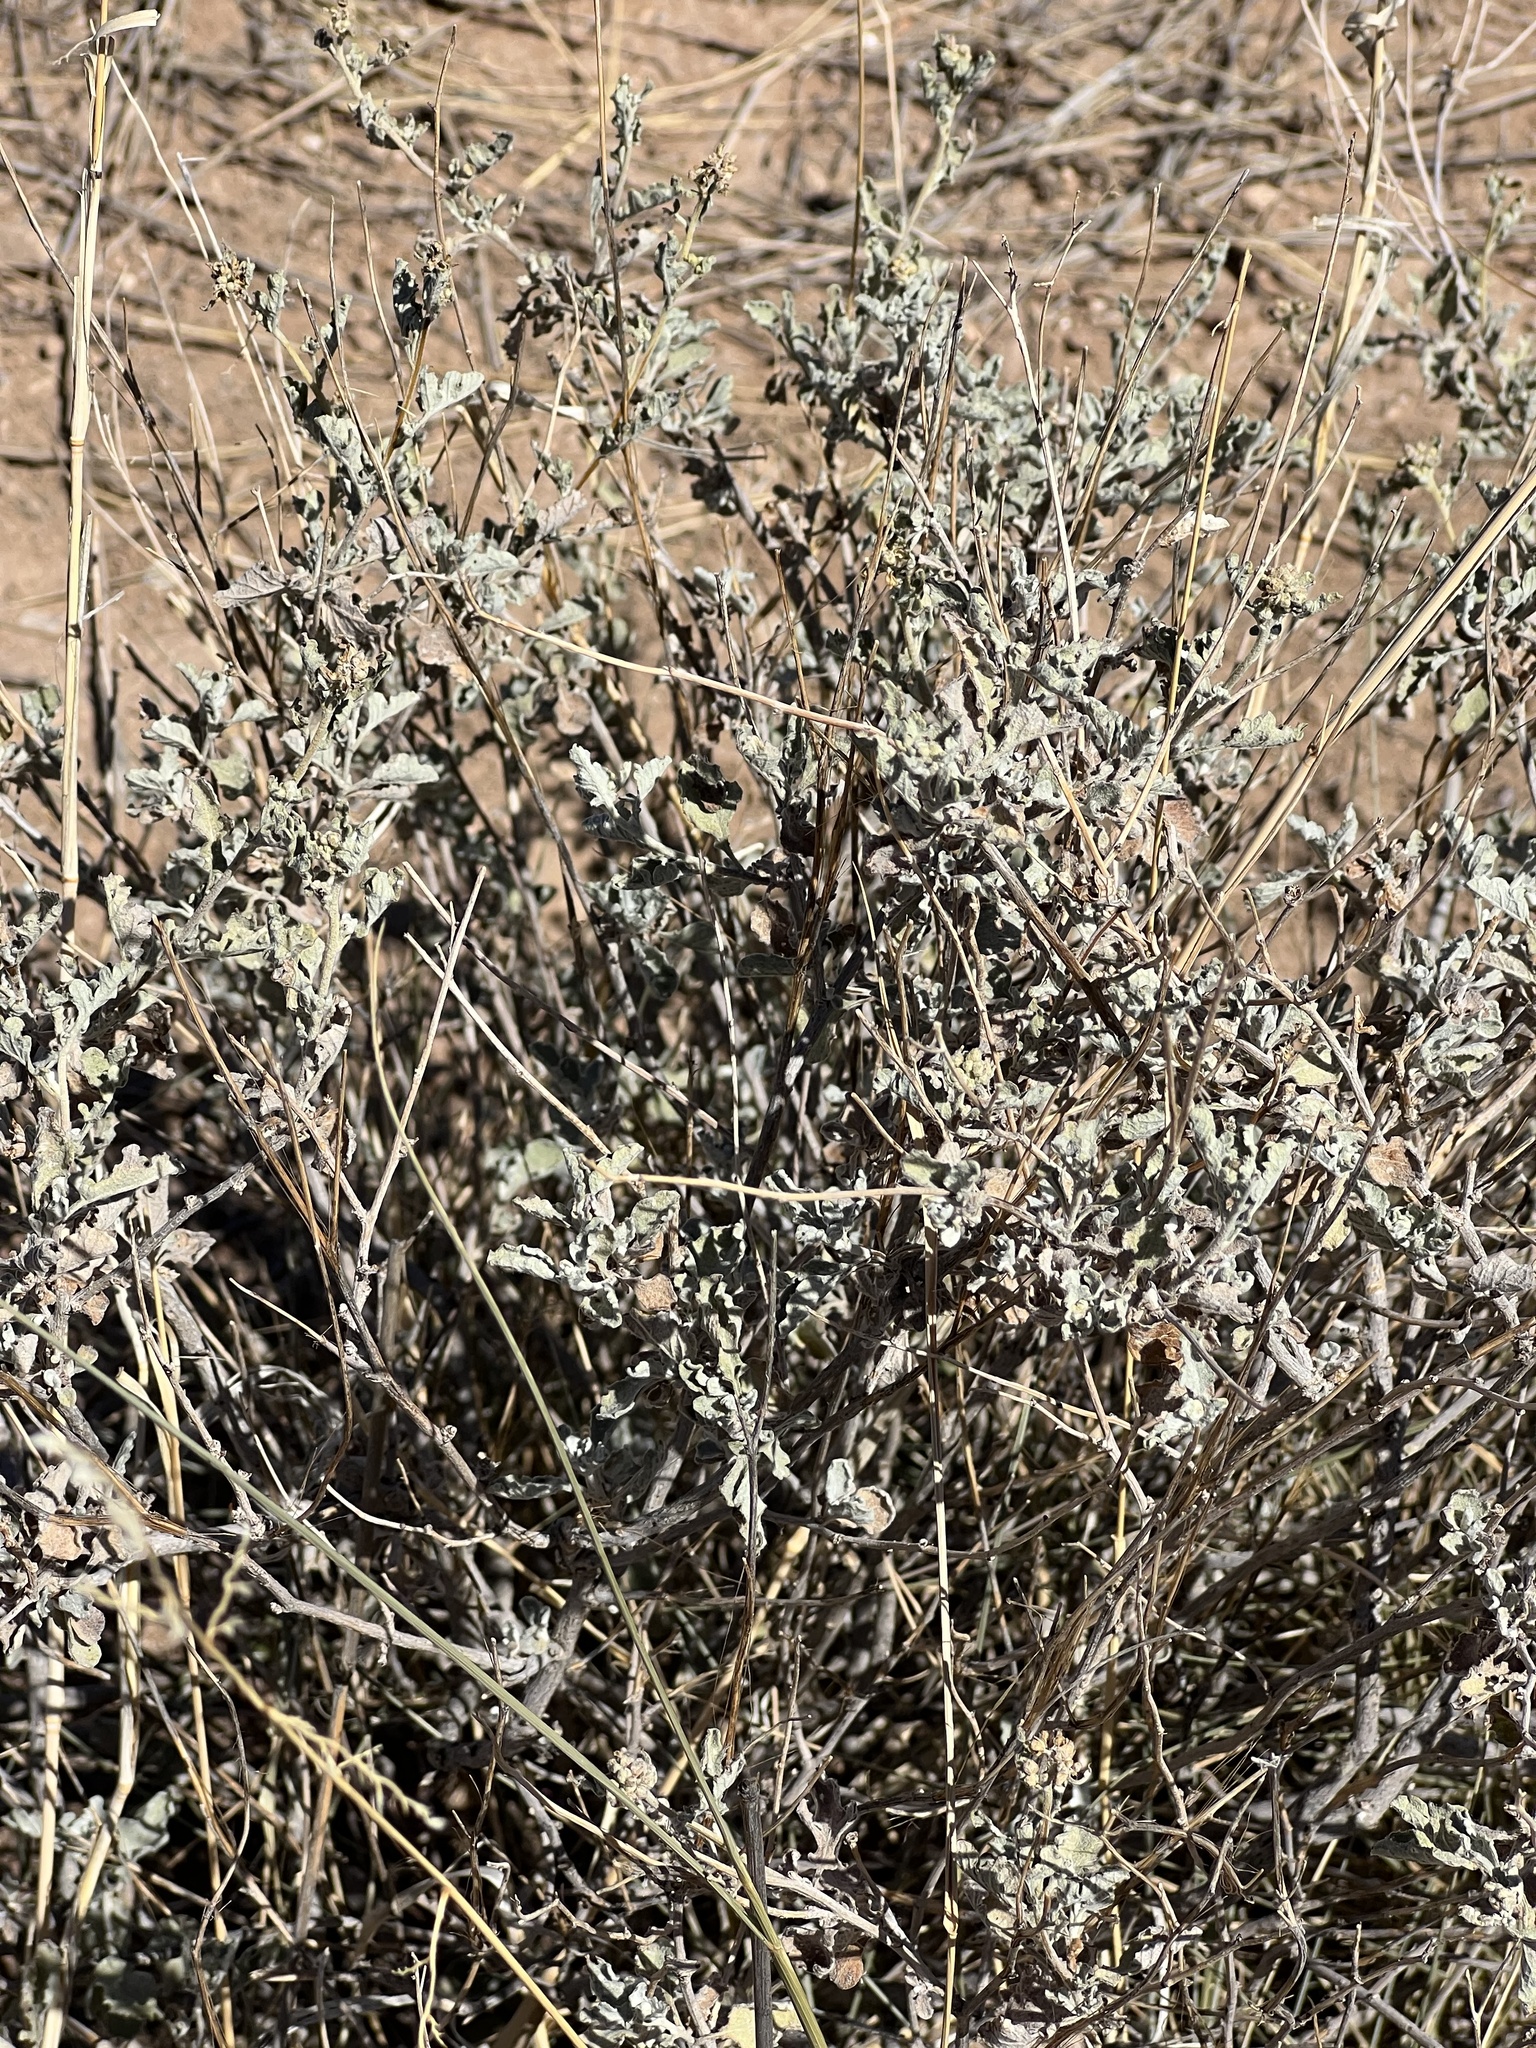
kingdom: Plantae
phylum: Tracheophyta
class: Magnoliopsida
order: Asterales
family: Asteraceae
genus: Parthenium
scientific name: Parthenium incanum
